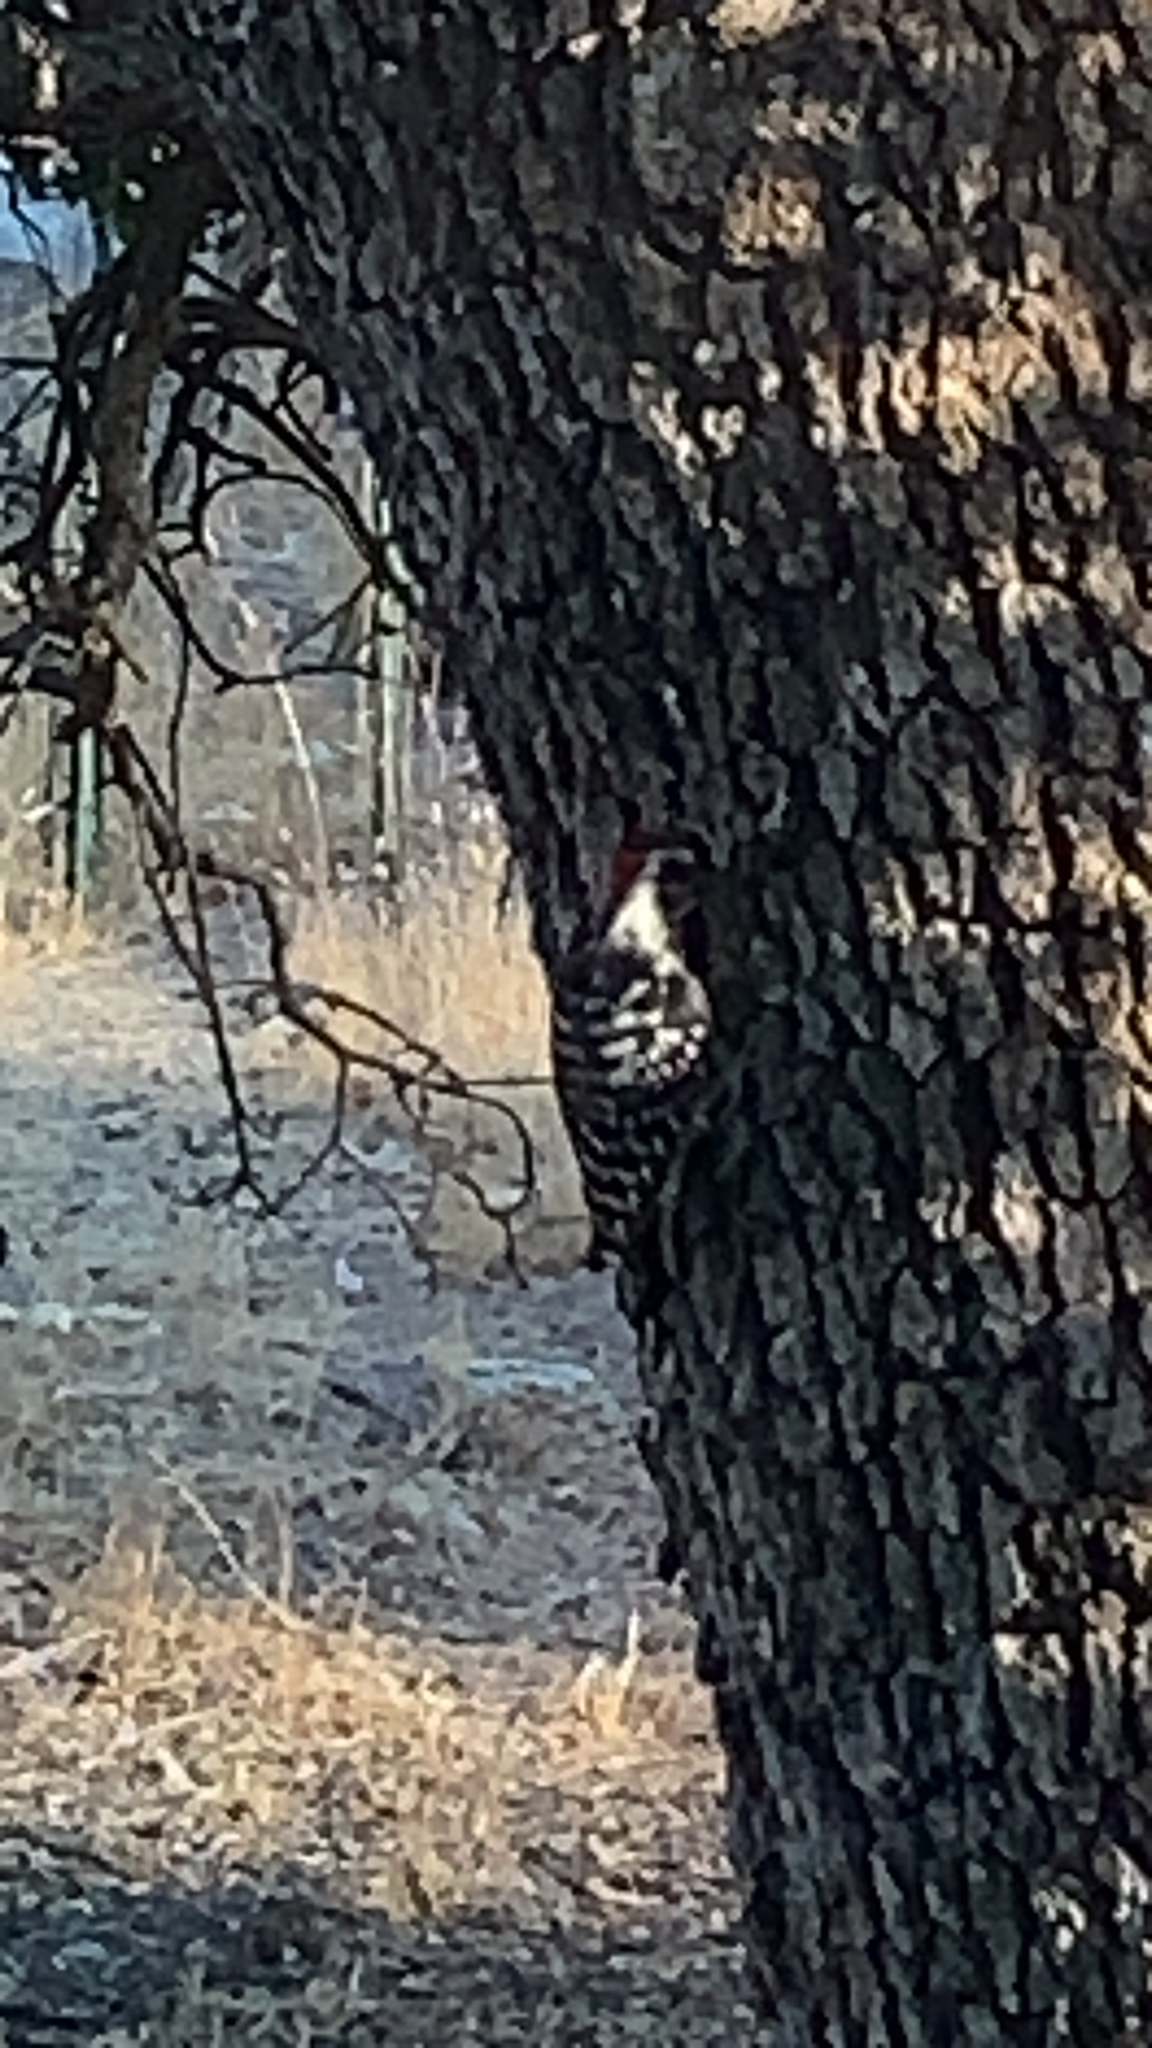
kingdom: Animalia
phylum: Chordata
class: Aves
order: Piciformes
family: Picidae
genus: Dryobates
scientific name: Dryobates nuttallii
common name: Nuttall's woodpecker
